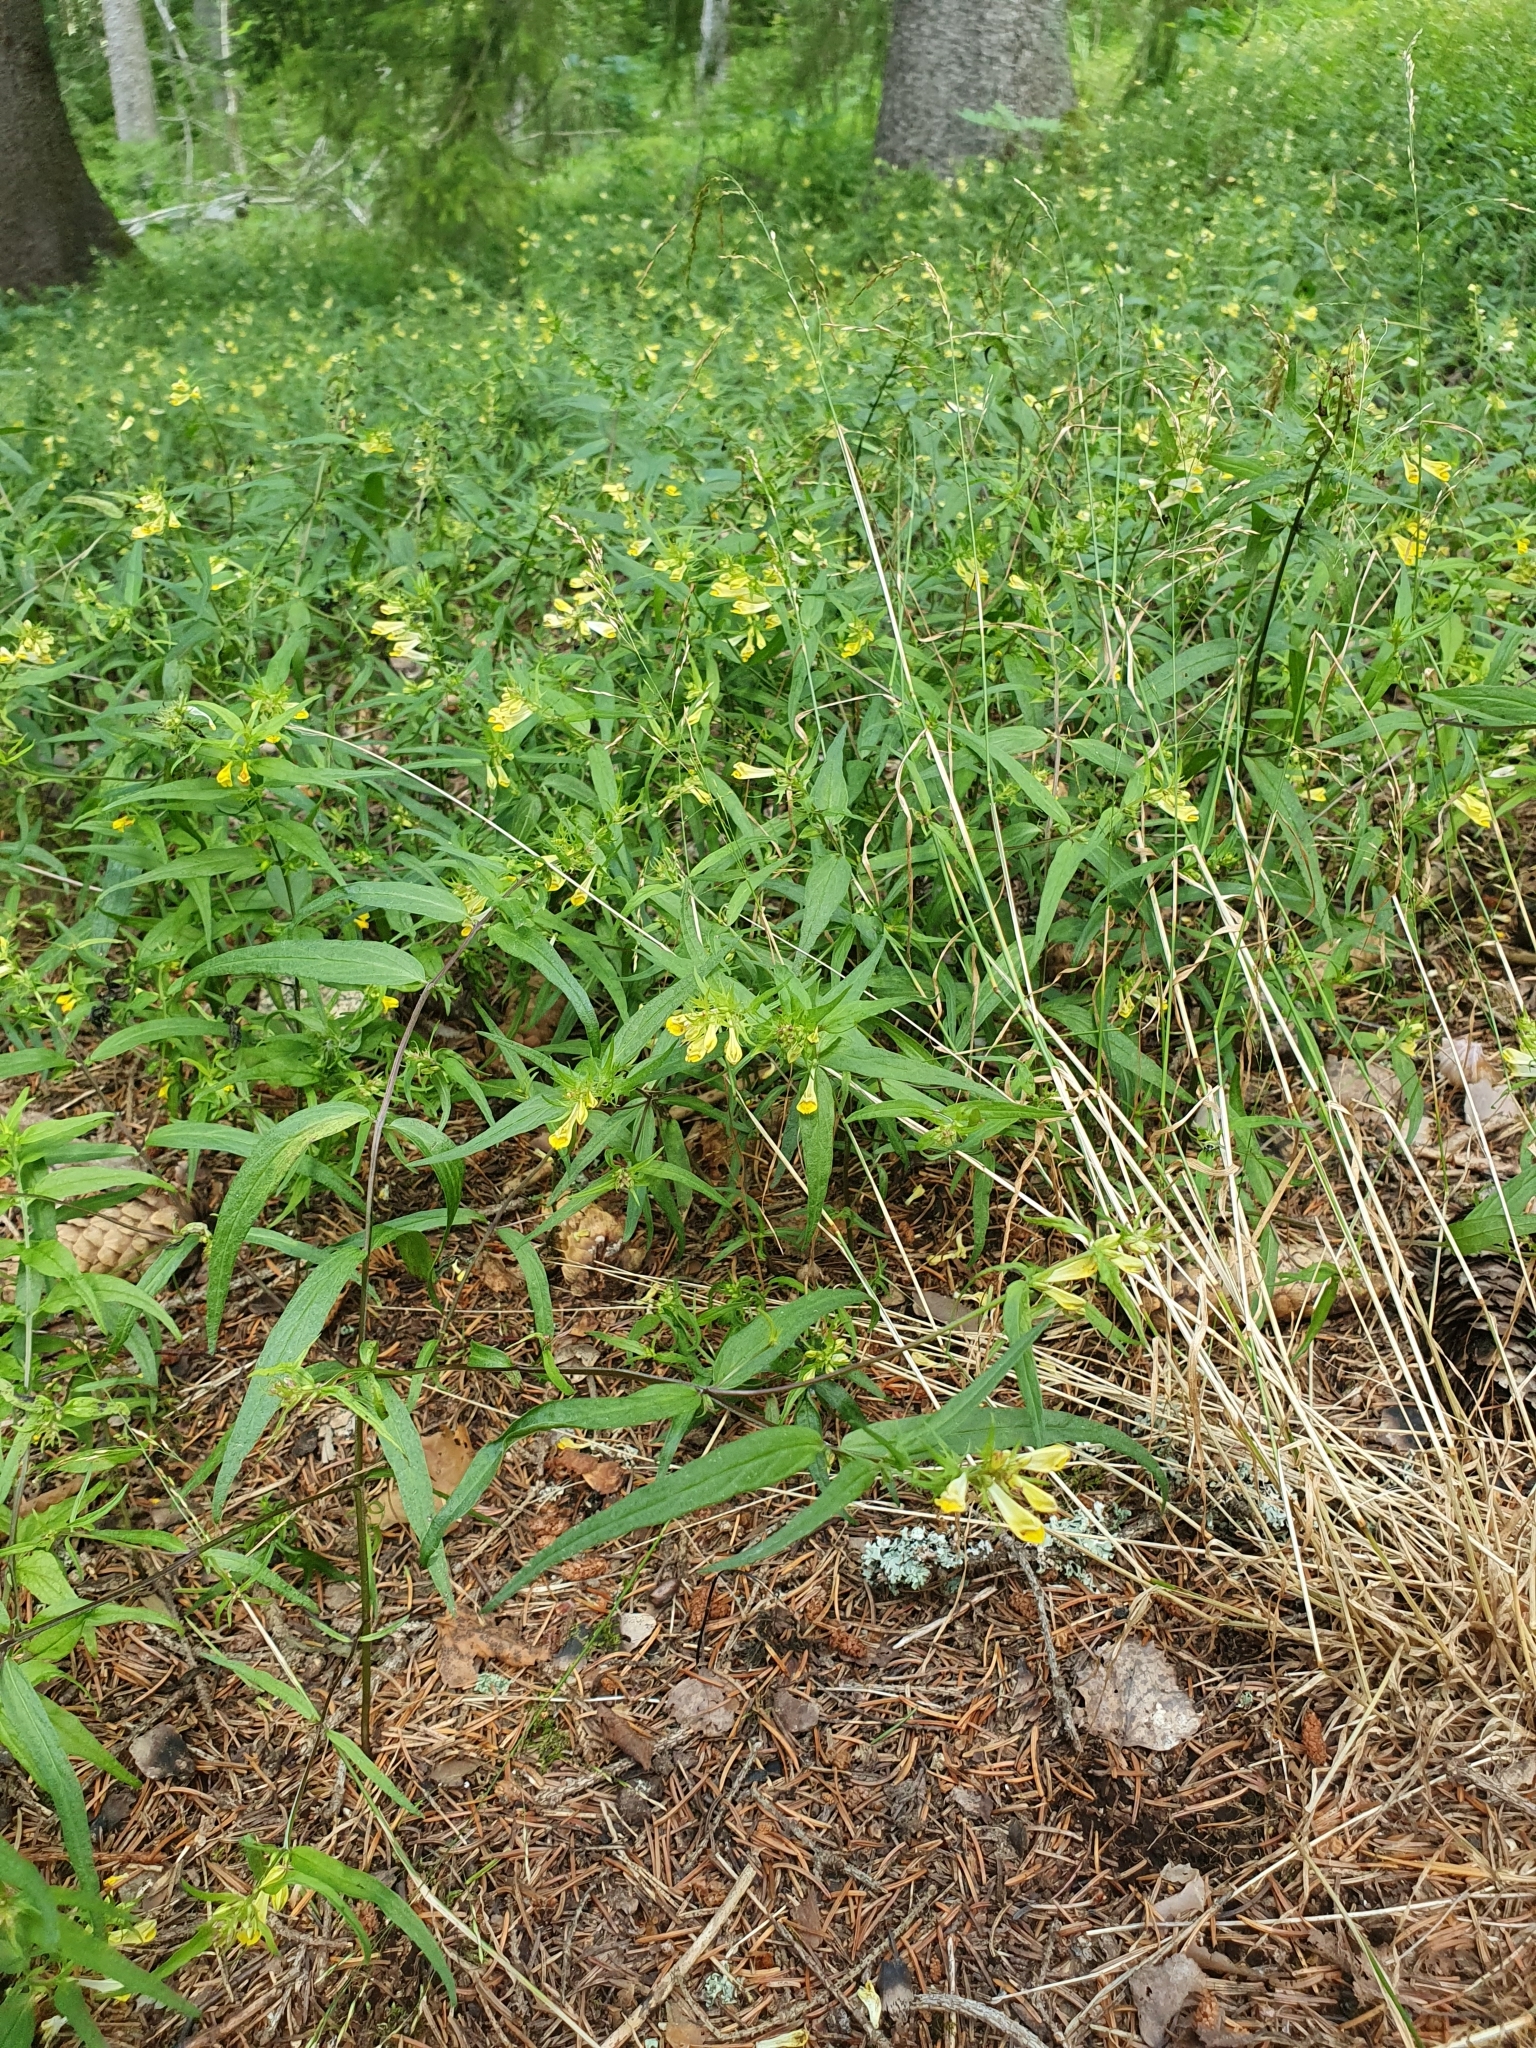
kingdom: Plantae
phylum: Tracheophyta
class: Magnoliopsida
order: Lamiales
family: Orobanchaceae
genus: Melampyrum
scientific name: Melampyrum pratense
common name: Common cow-wheat
